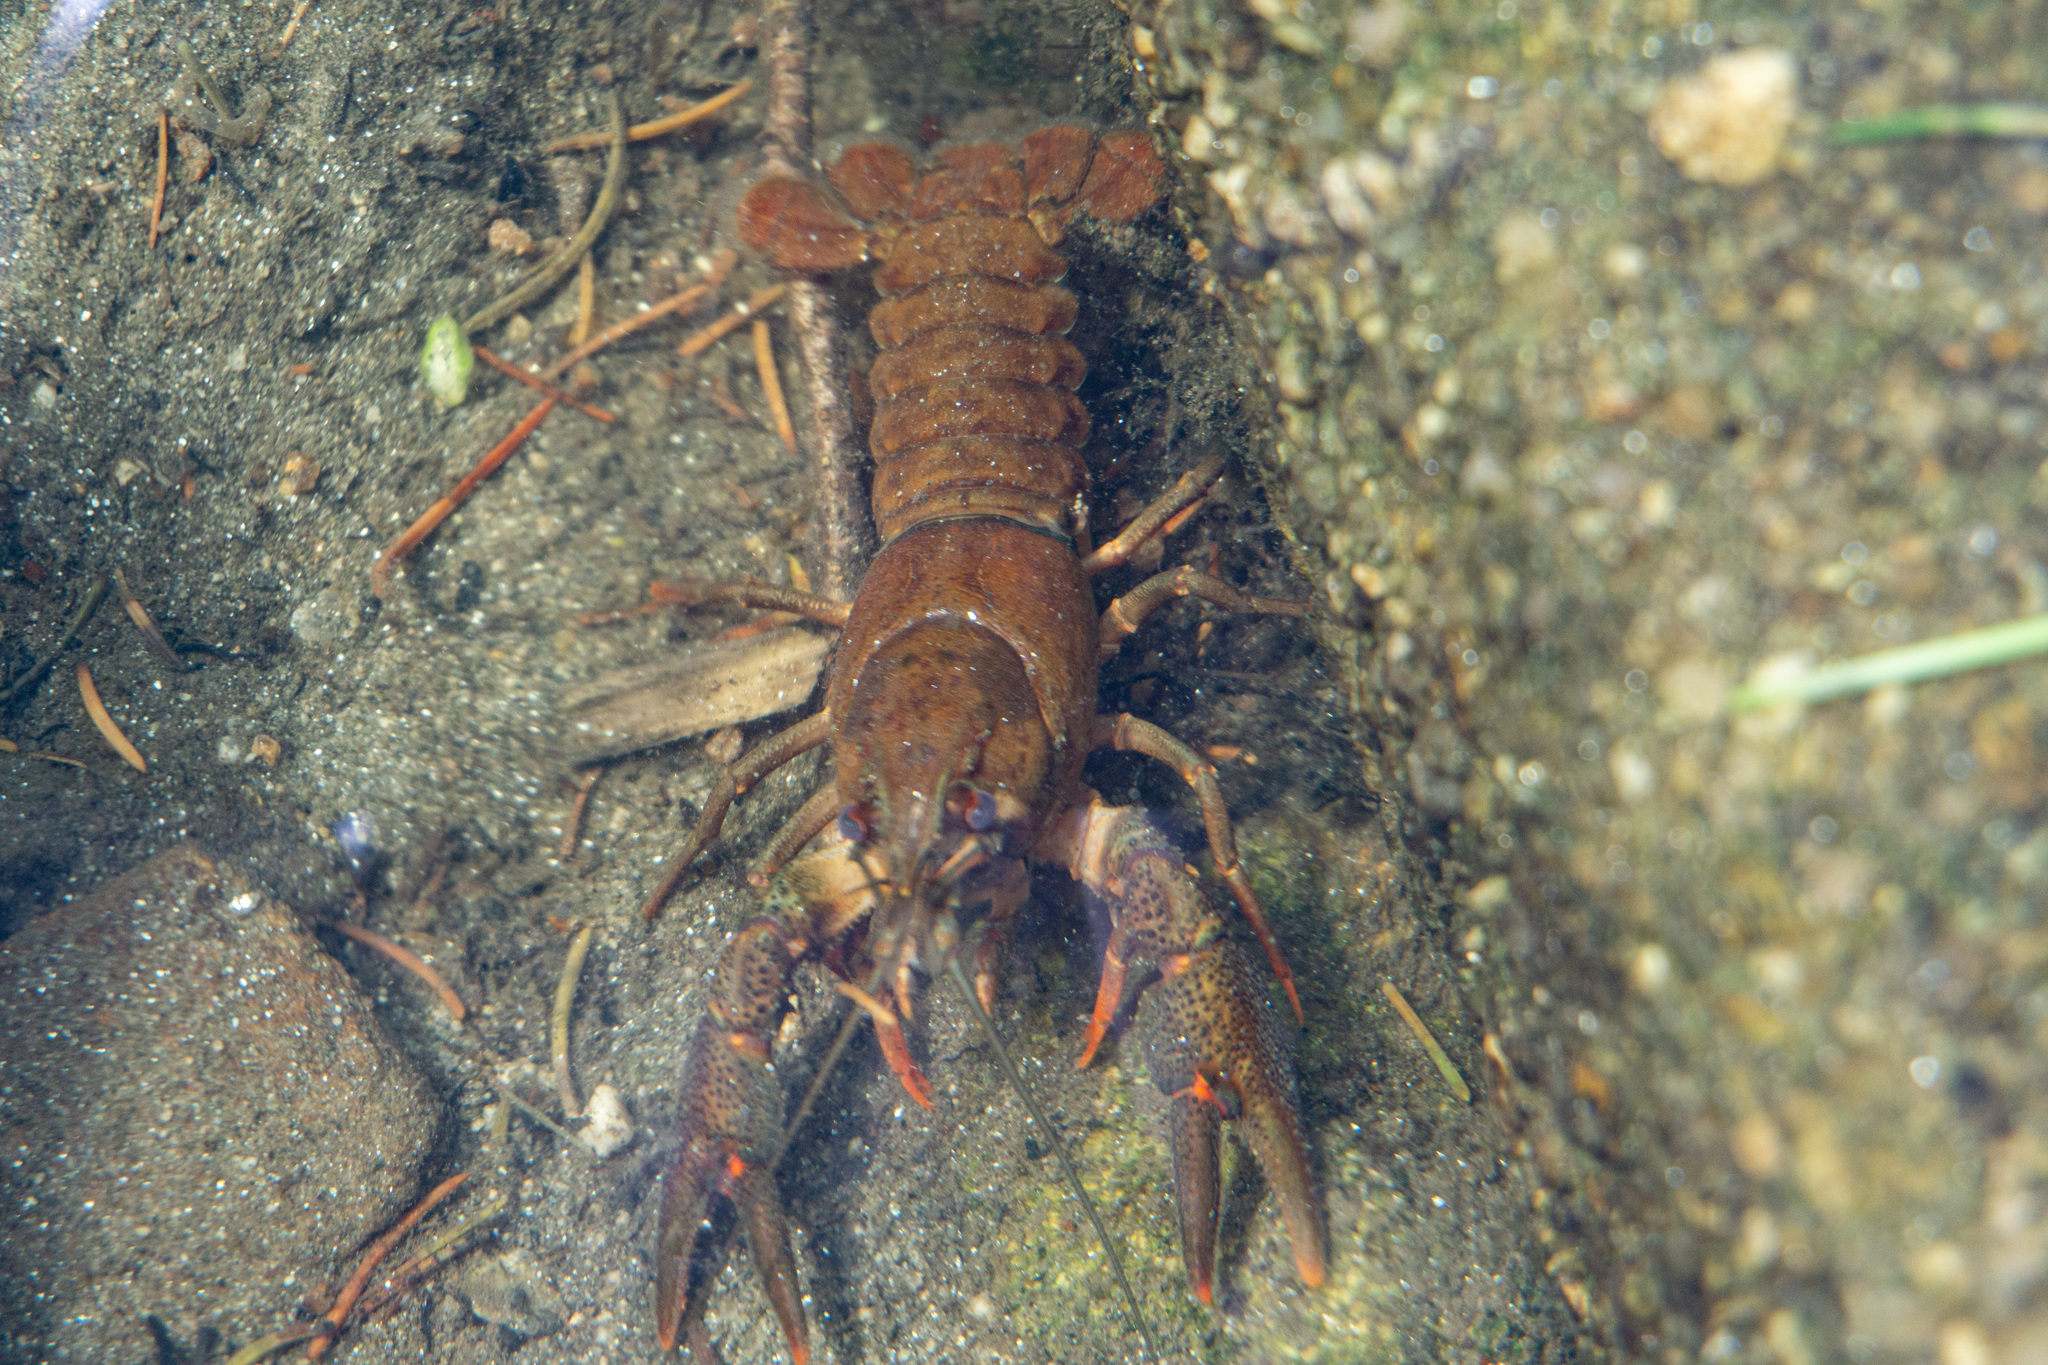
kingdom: Animalia
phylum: Arthropoda
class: Malacostraca
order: Decapoda
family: Astacidae
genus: Astacus
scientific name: Astacus astacus
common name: Noble crayfish
